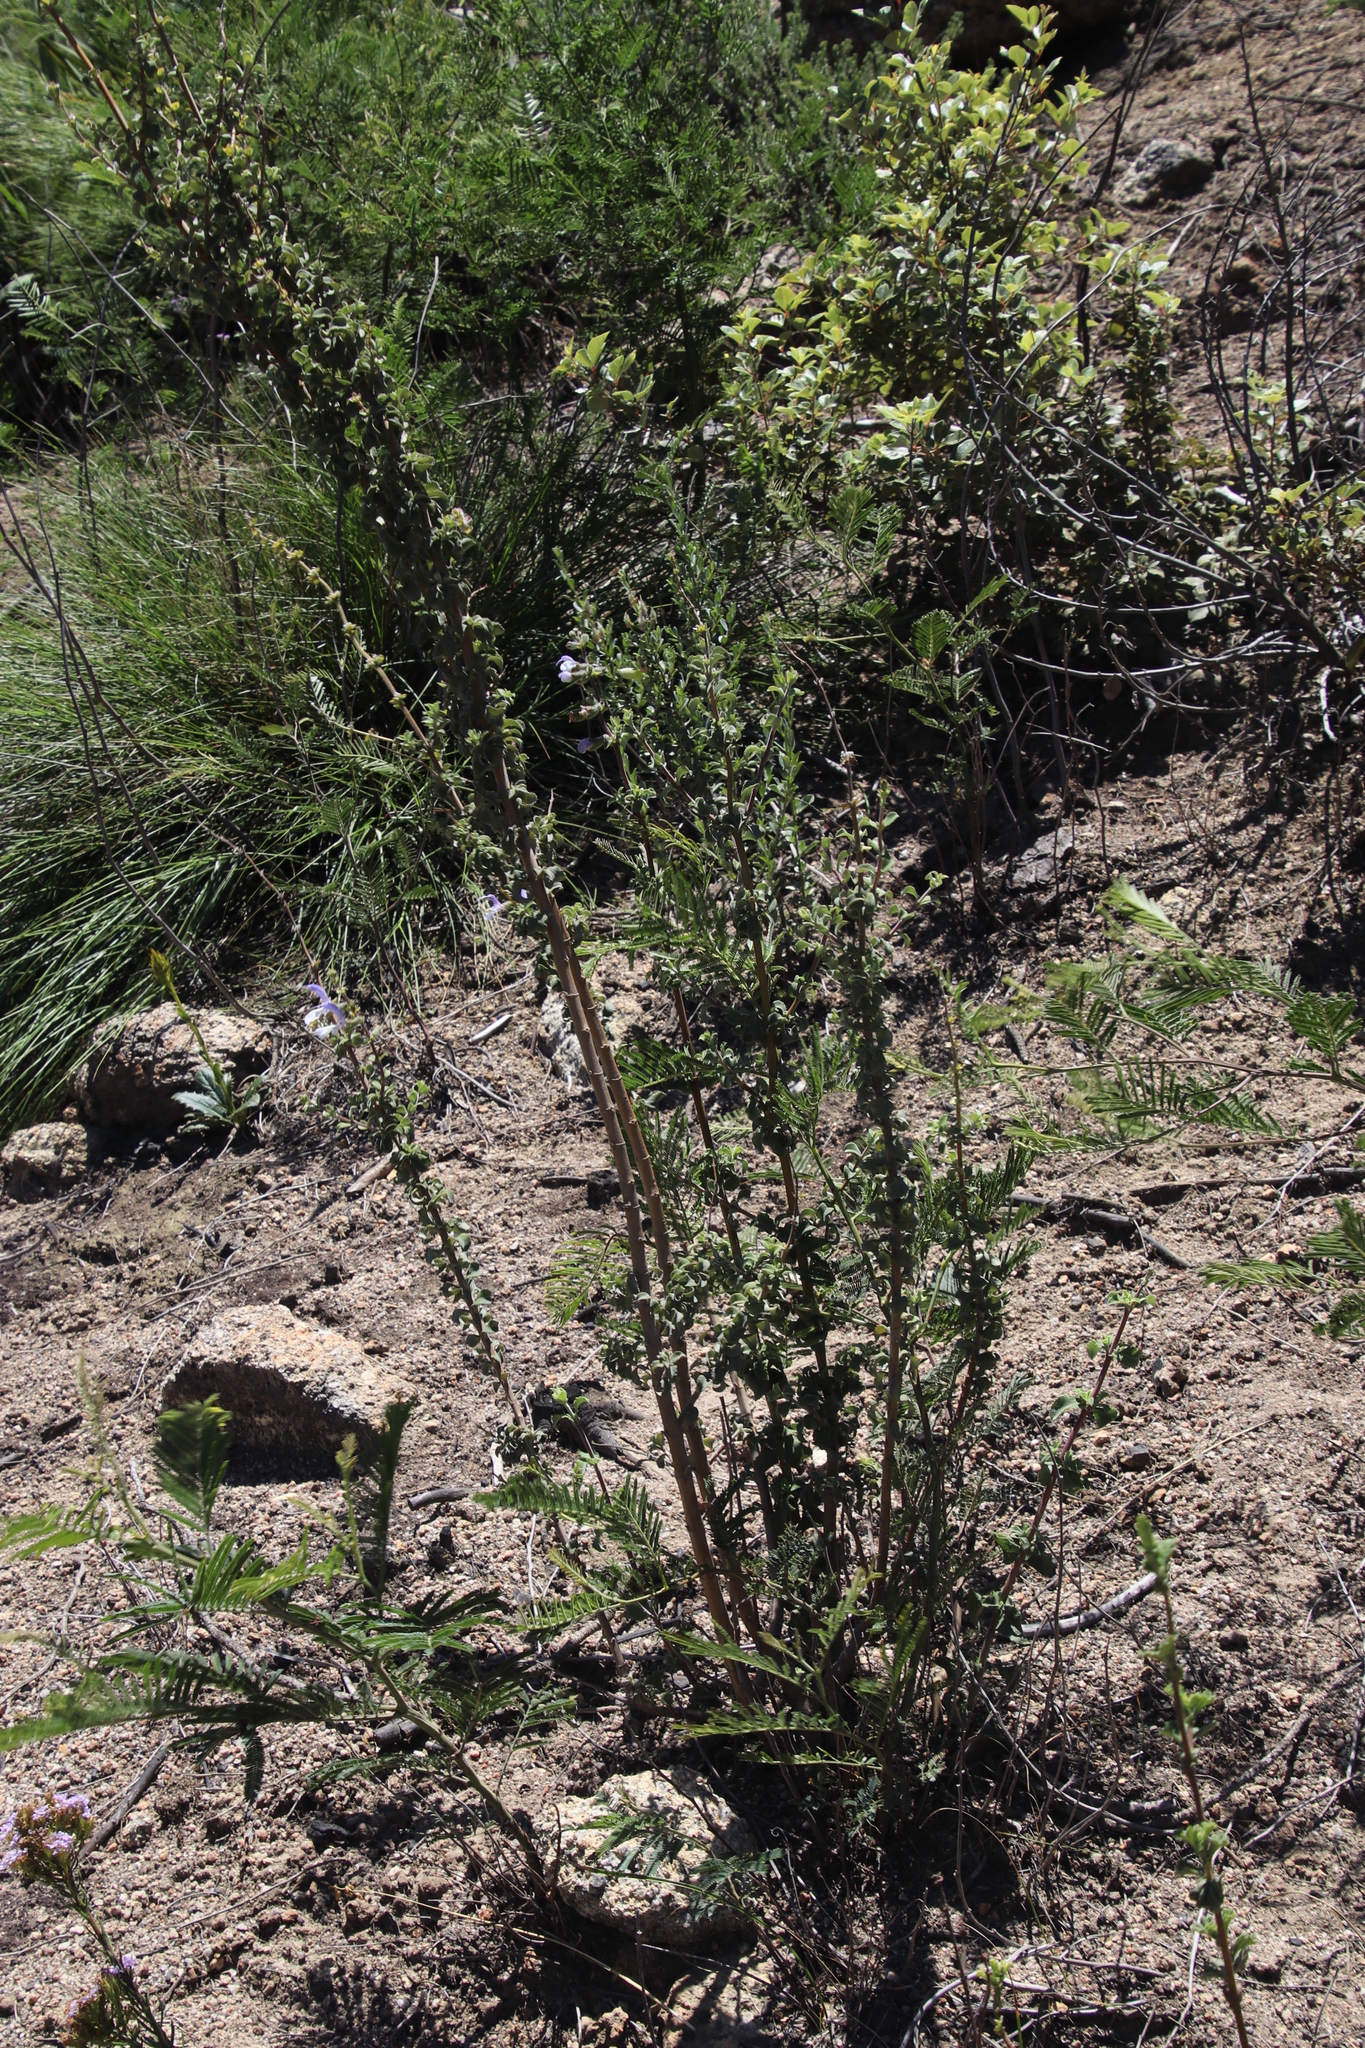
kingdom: Plantae
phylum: Tracheophyta
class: Magnoliopsida
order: Lamiales
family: Lamiaceae
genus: Salvia
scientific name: Salvia africana
